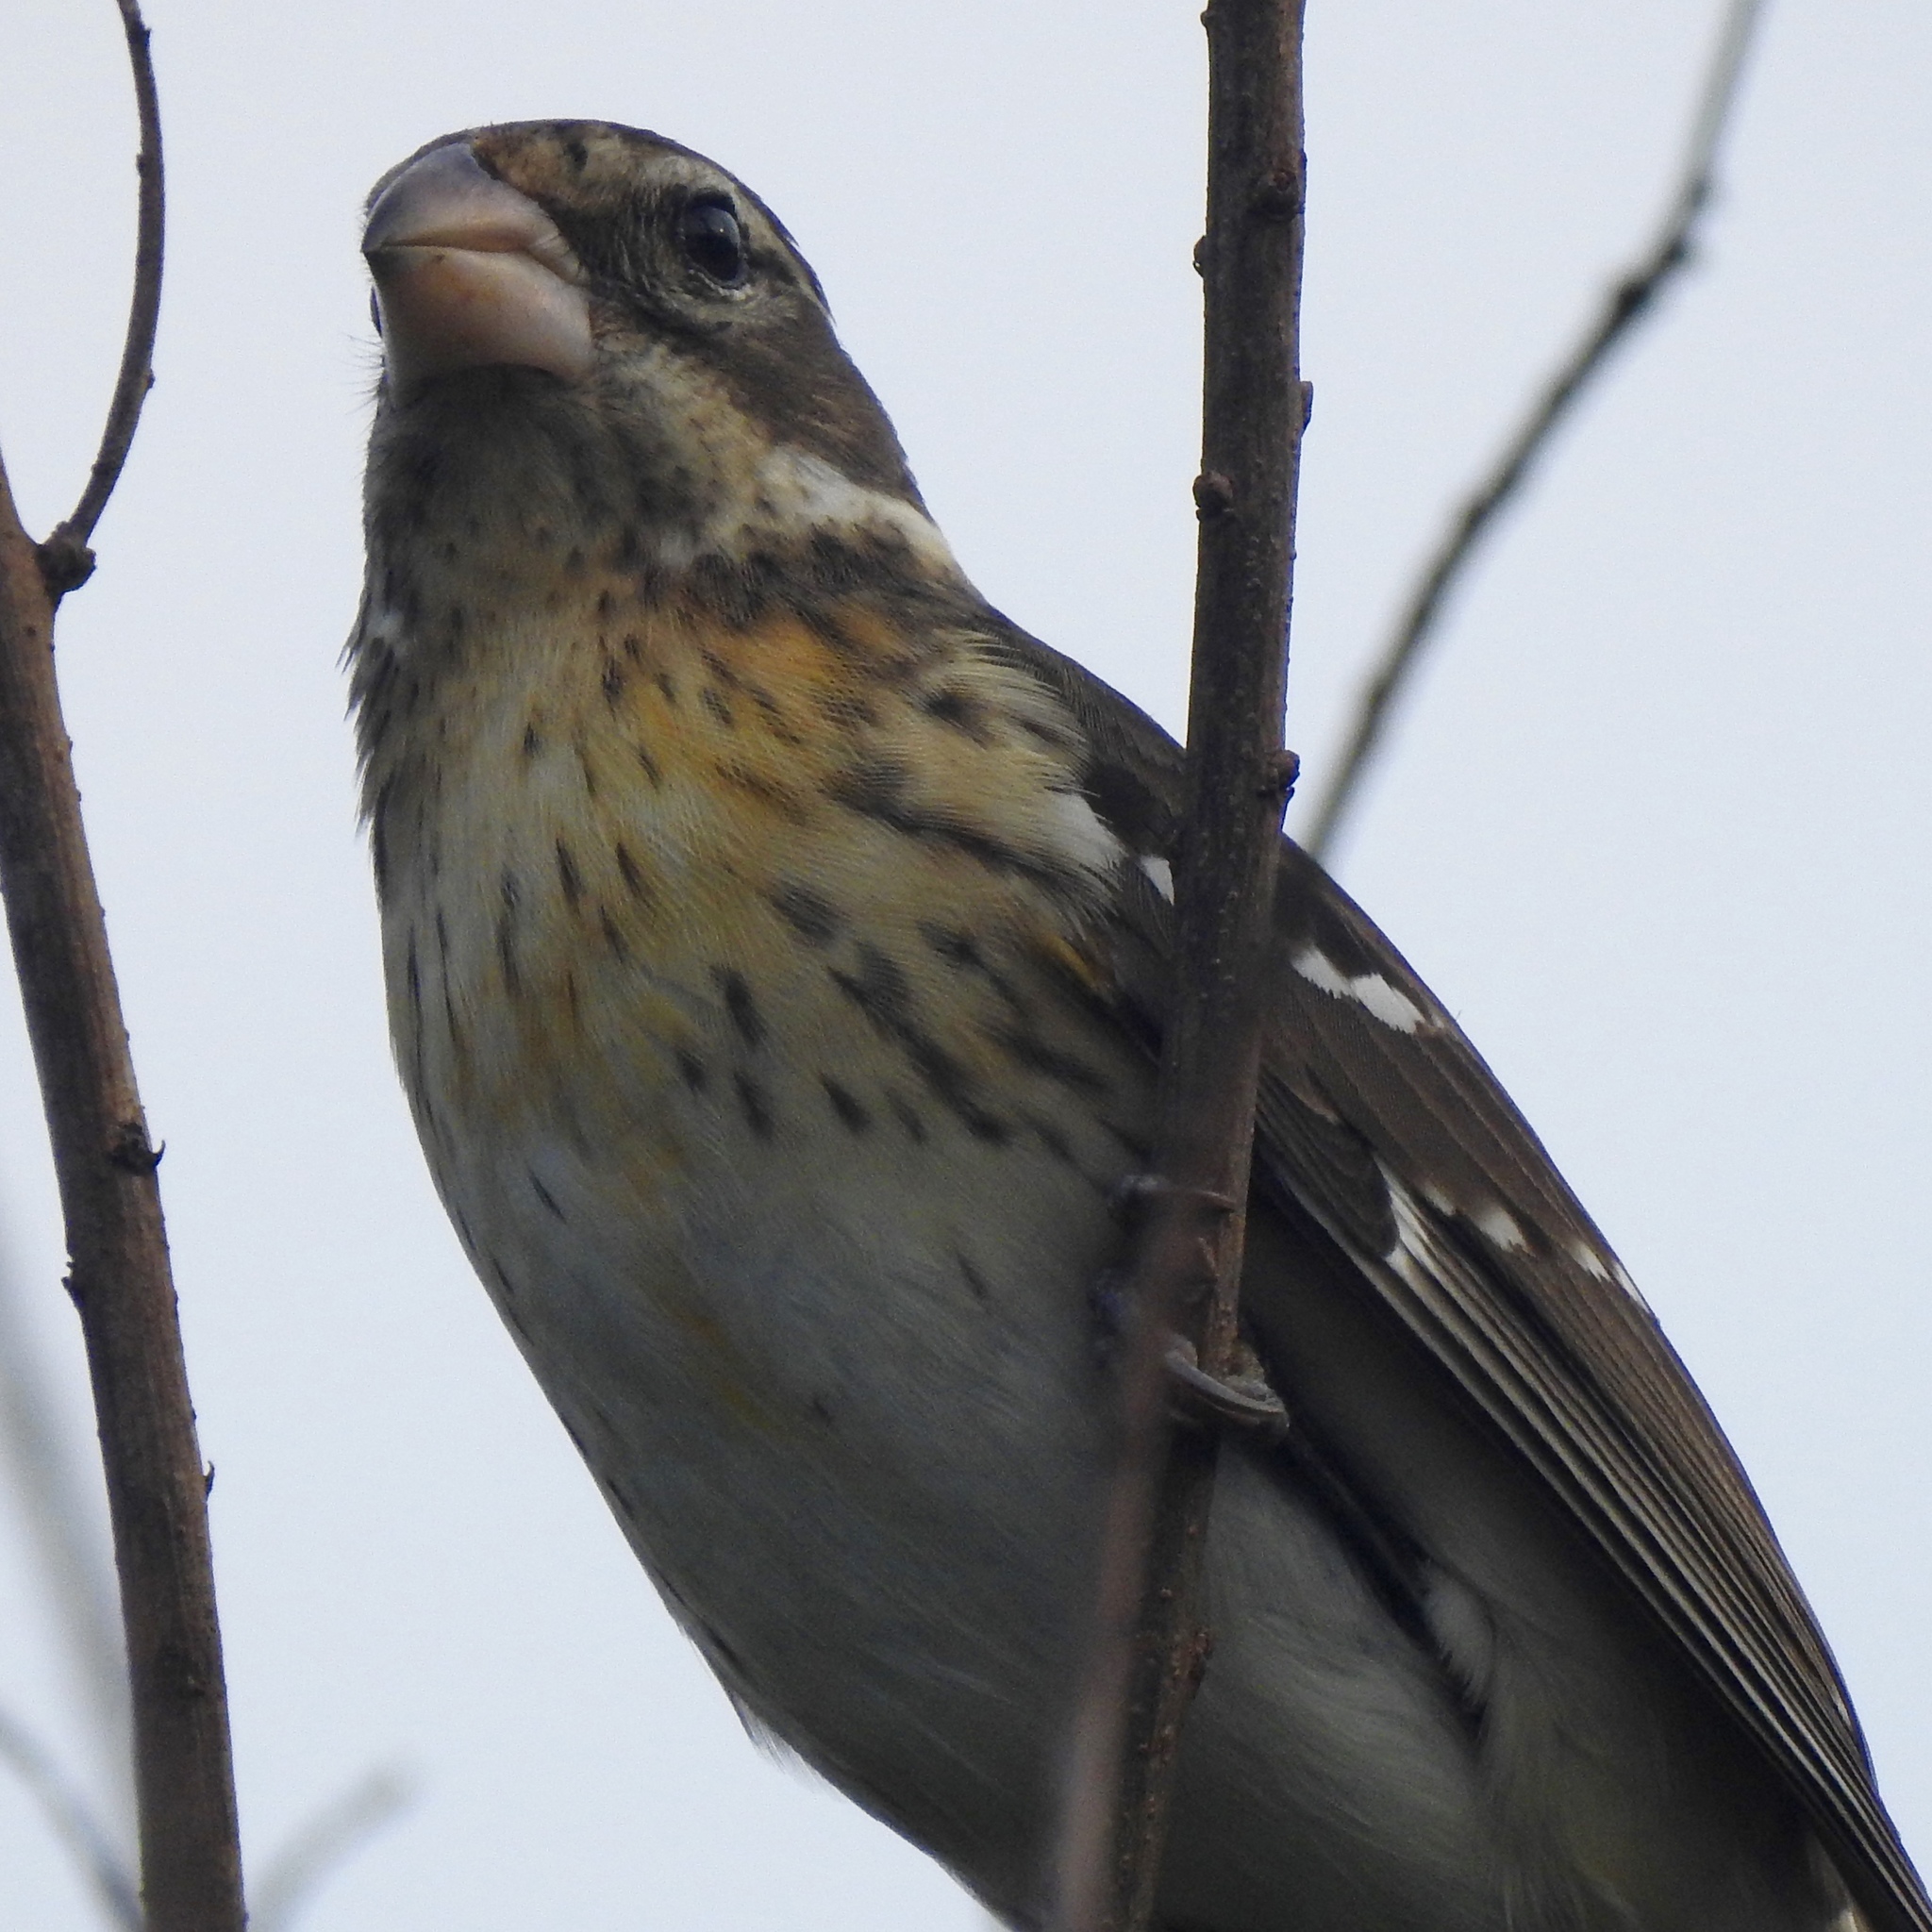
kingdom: Animalia
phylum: Chordata
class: Aves
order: Passeriformes
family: Cardinalidae
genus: Pheucticus
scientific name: Pheucticus ludovicianus
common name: Rose-breasted grosbeak
